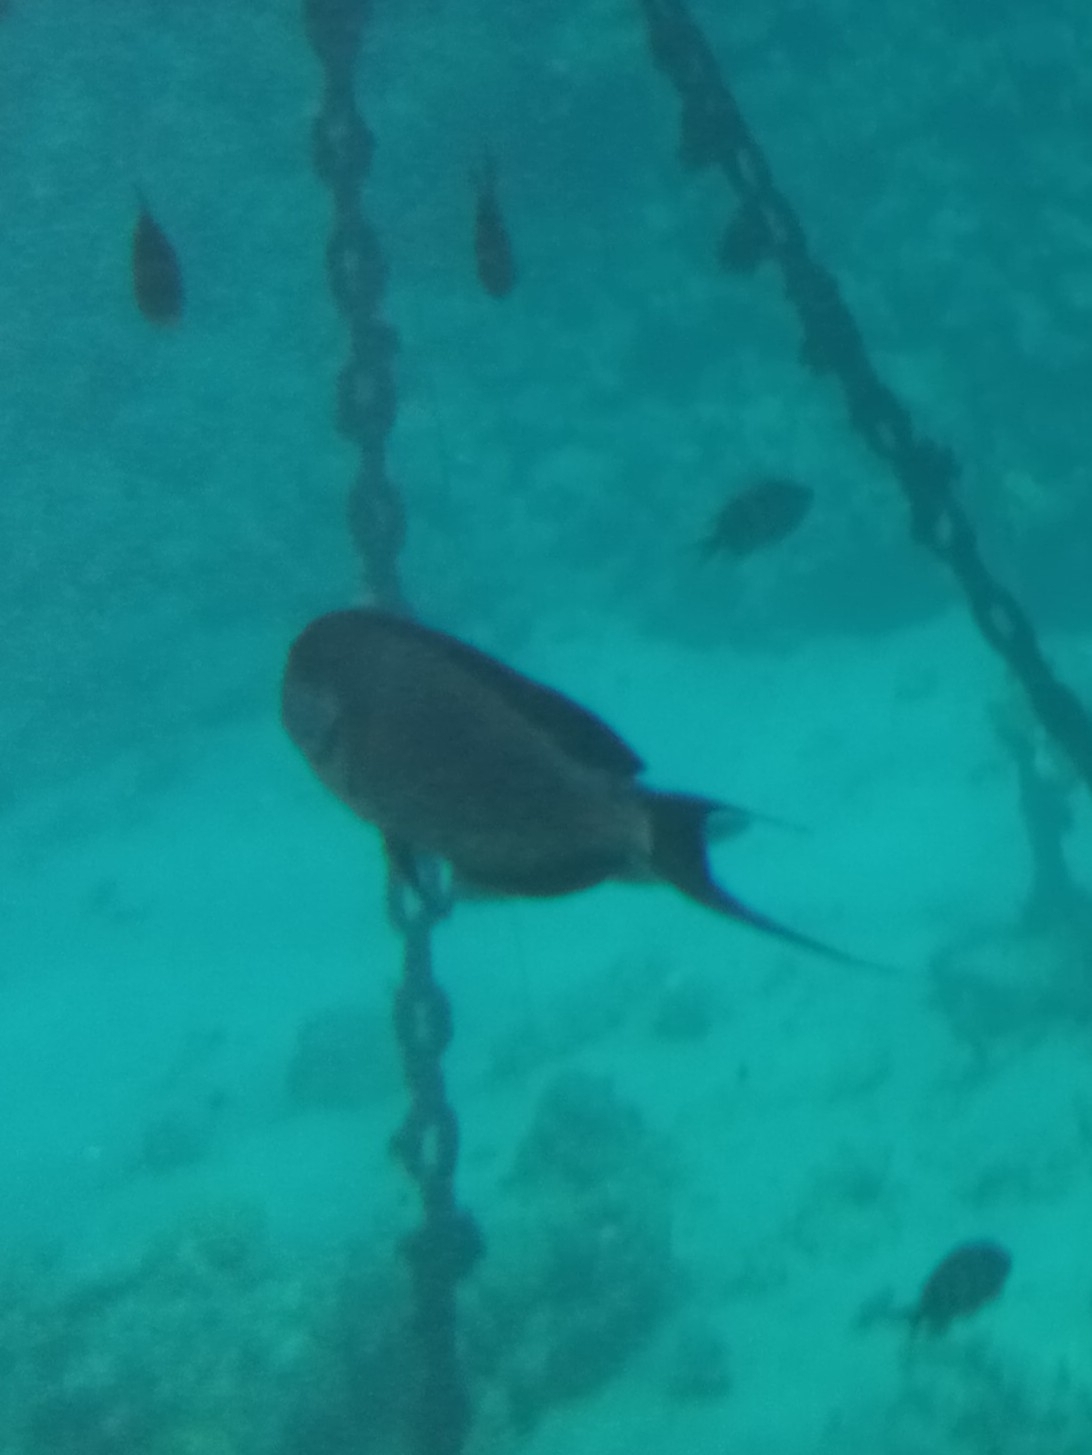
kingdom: Animalia
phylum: Chordata
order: Perciformes
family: Acanthuridae
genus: Acanthurus
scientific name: Acanthurus sohal
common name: Red sea surgeonfish
